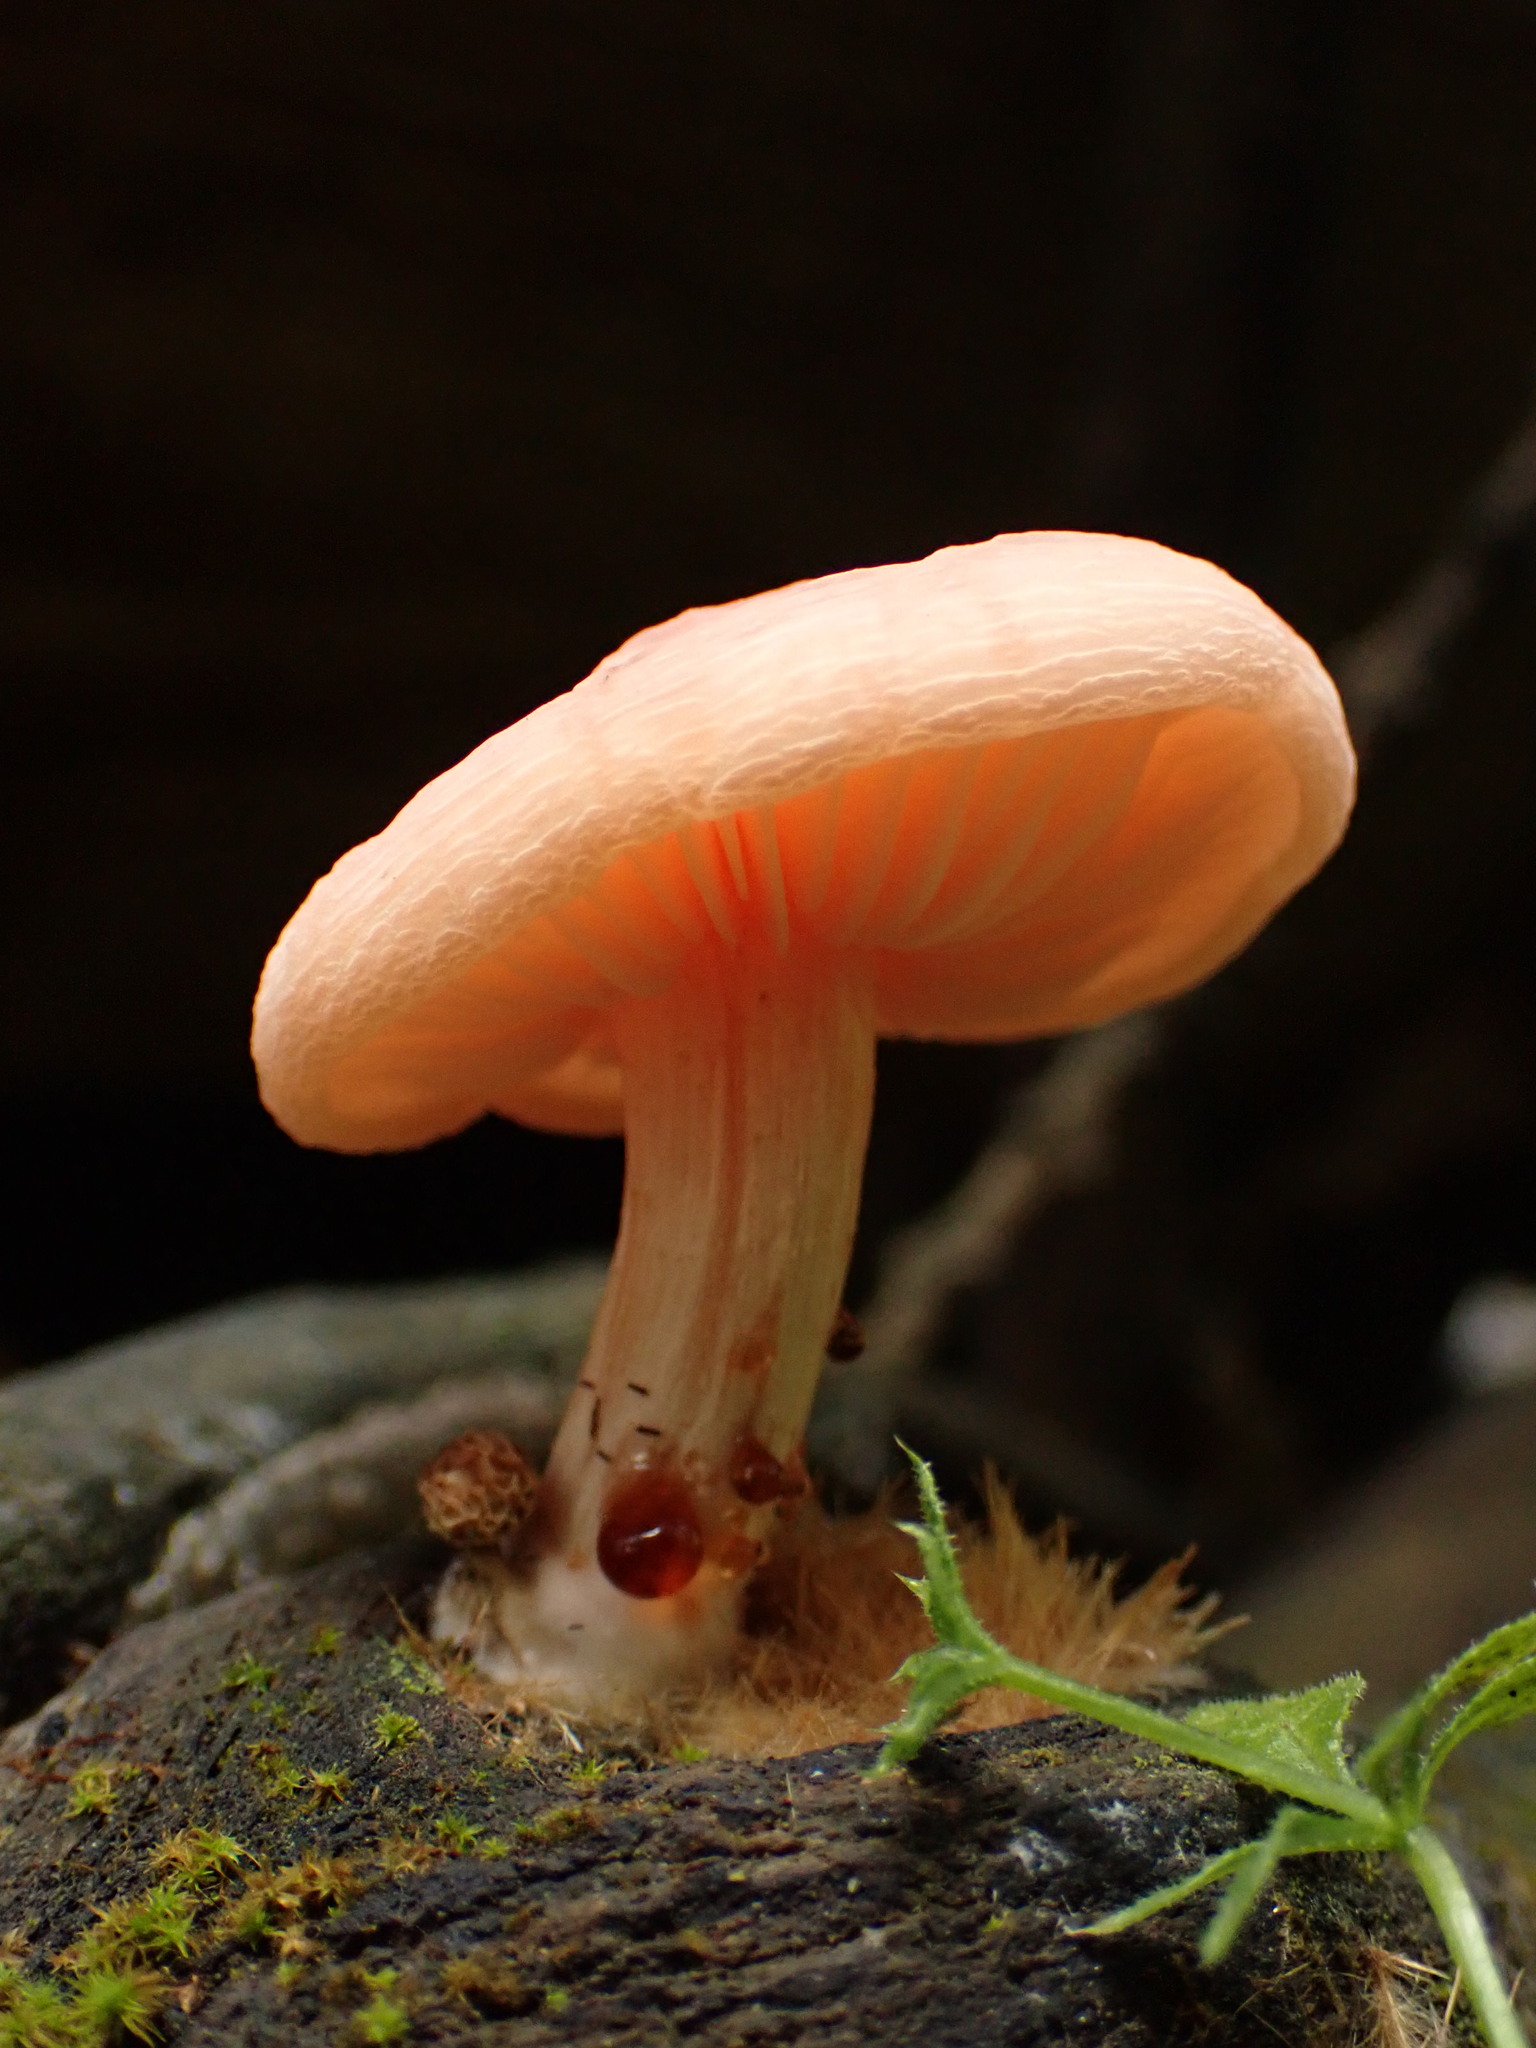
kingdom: Fungi
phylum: Basidiomycota
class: Agaricomycetes
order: Agaricales
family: Physalacriaceae
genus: Rhodotus
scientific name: Rhodotus palmatus
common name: Wrinkled peach
